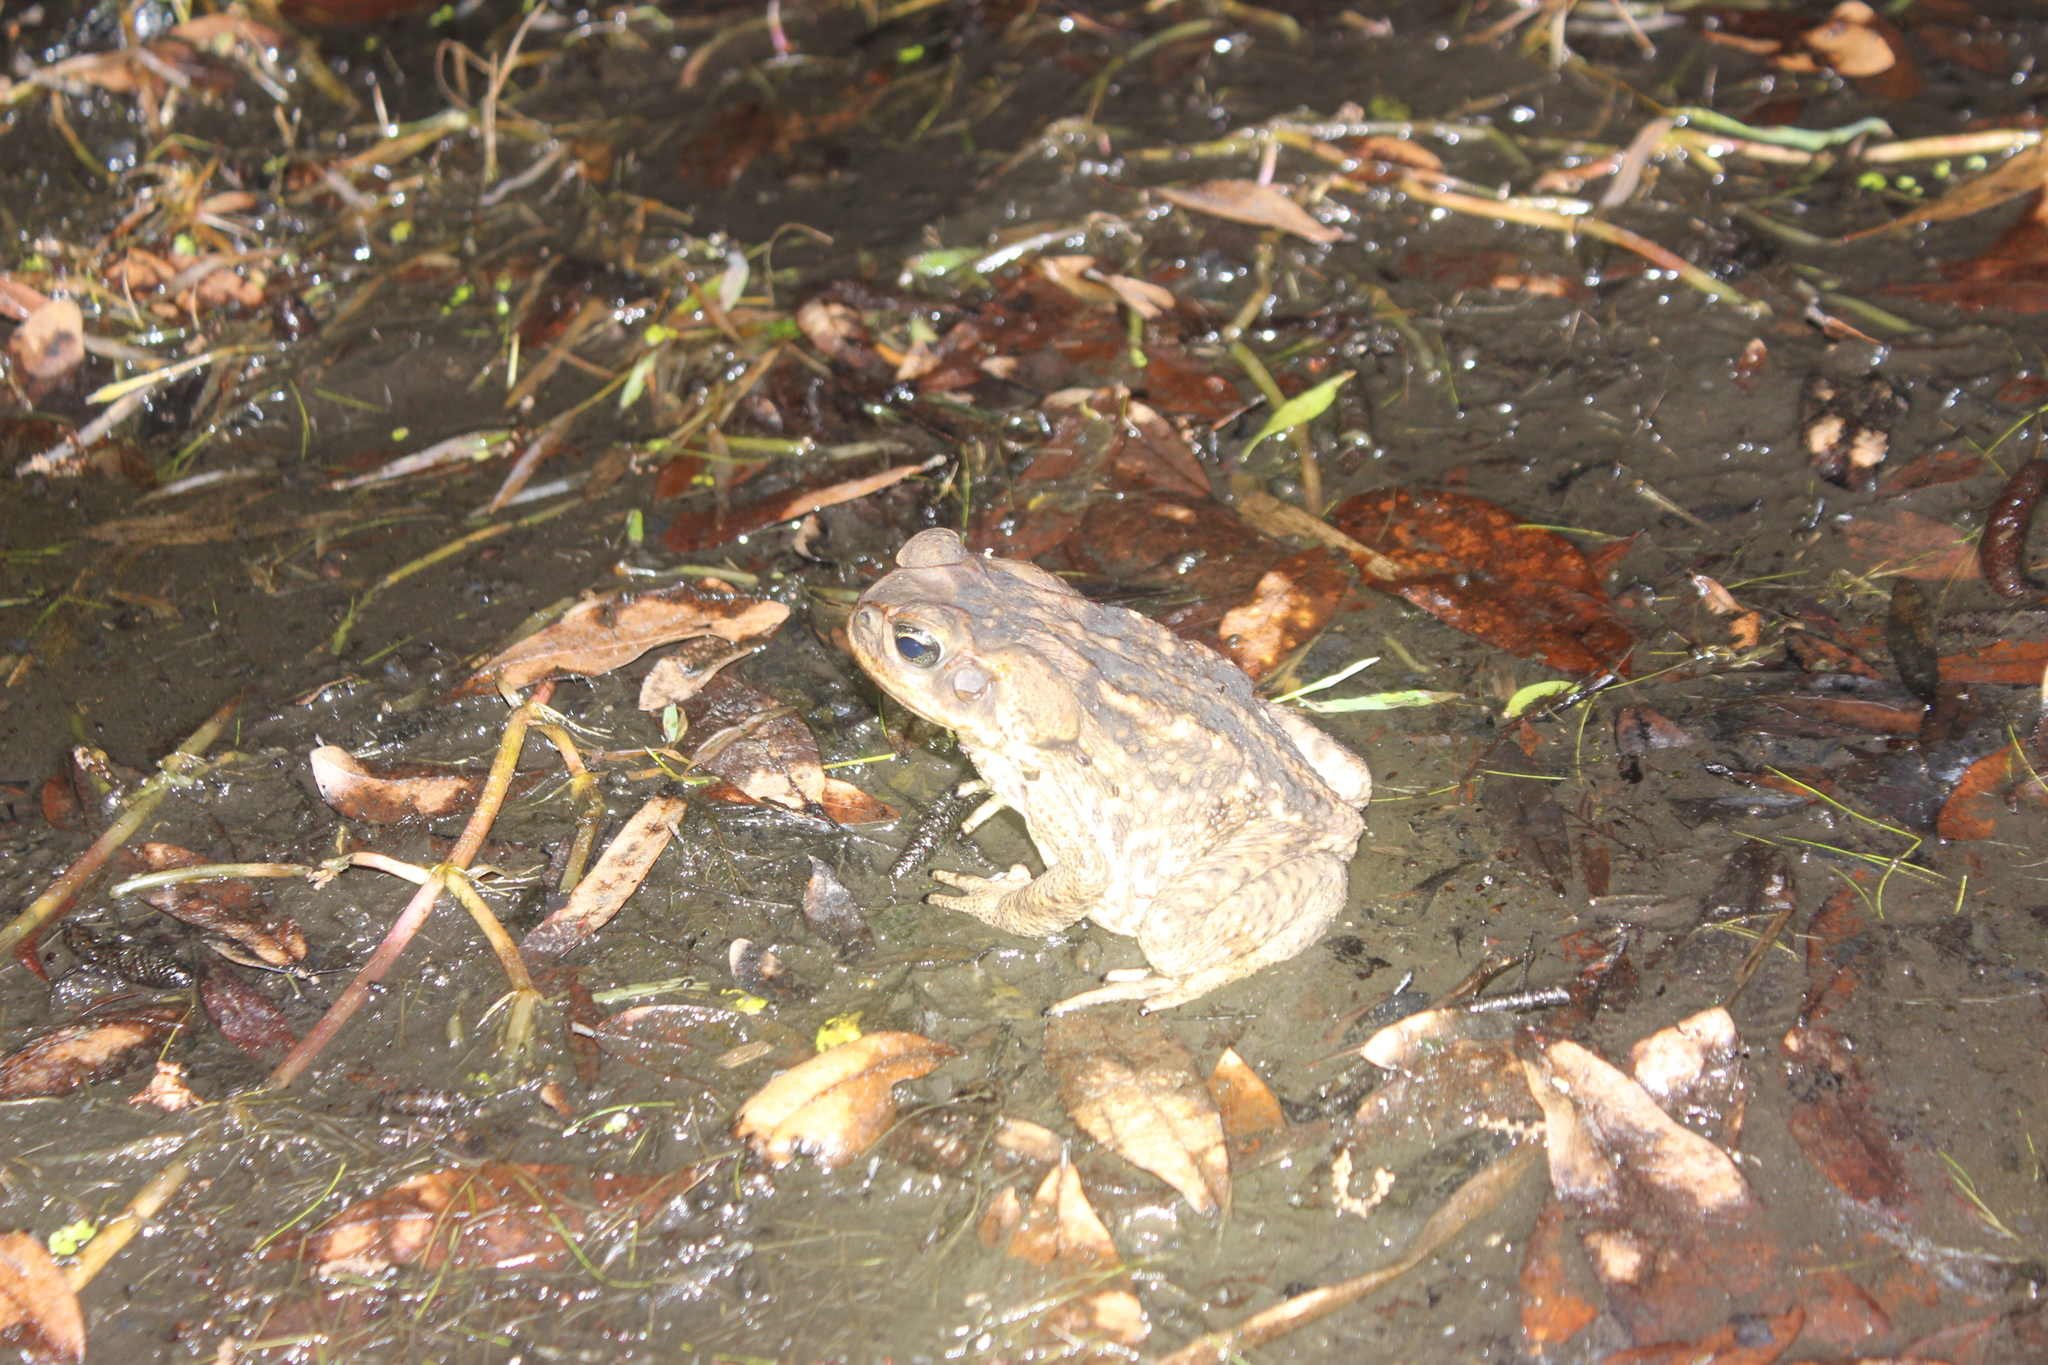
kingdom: Animalia
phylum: Chordata
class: Amphibia
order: Anura
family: Bufonidae
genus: Rhinella
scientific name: Rhinella marina
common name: Cane toad
